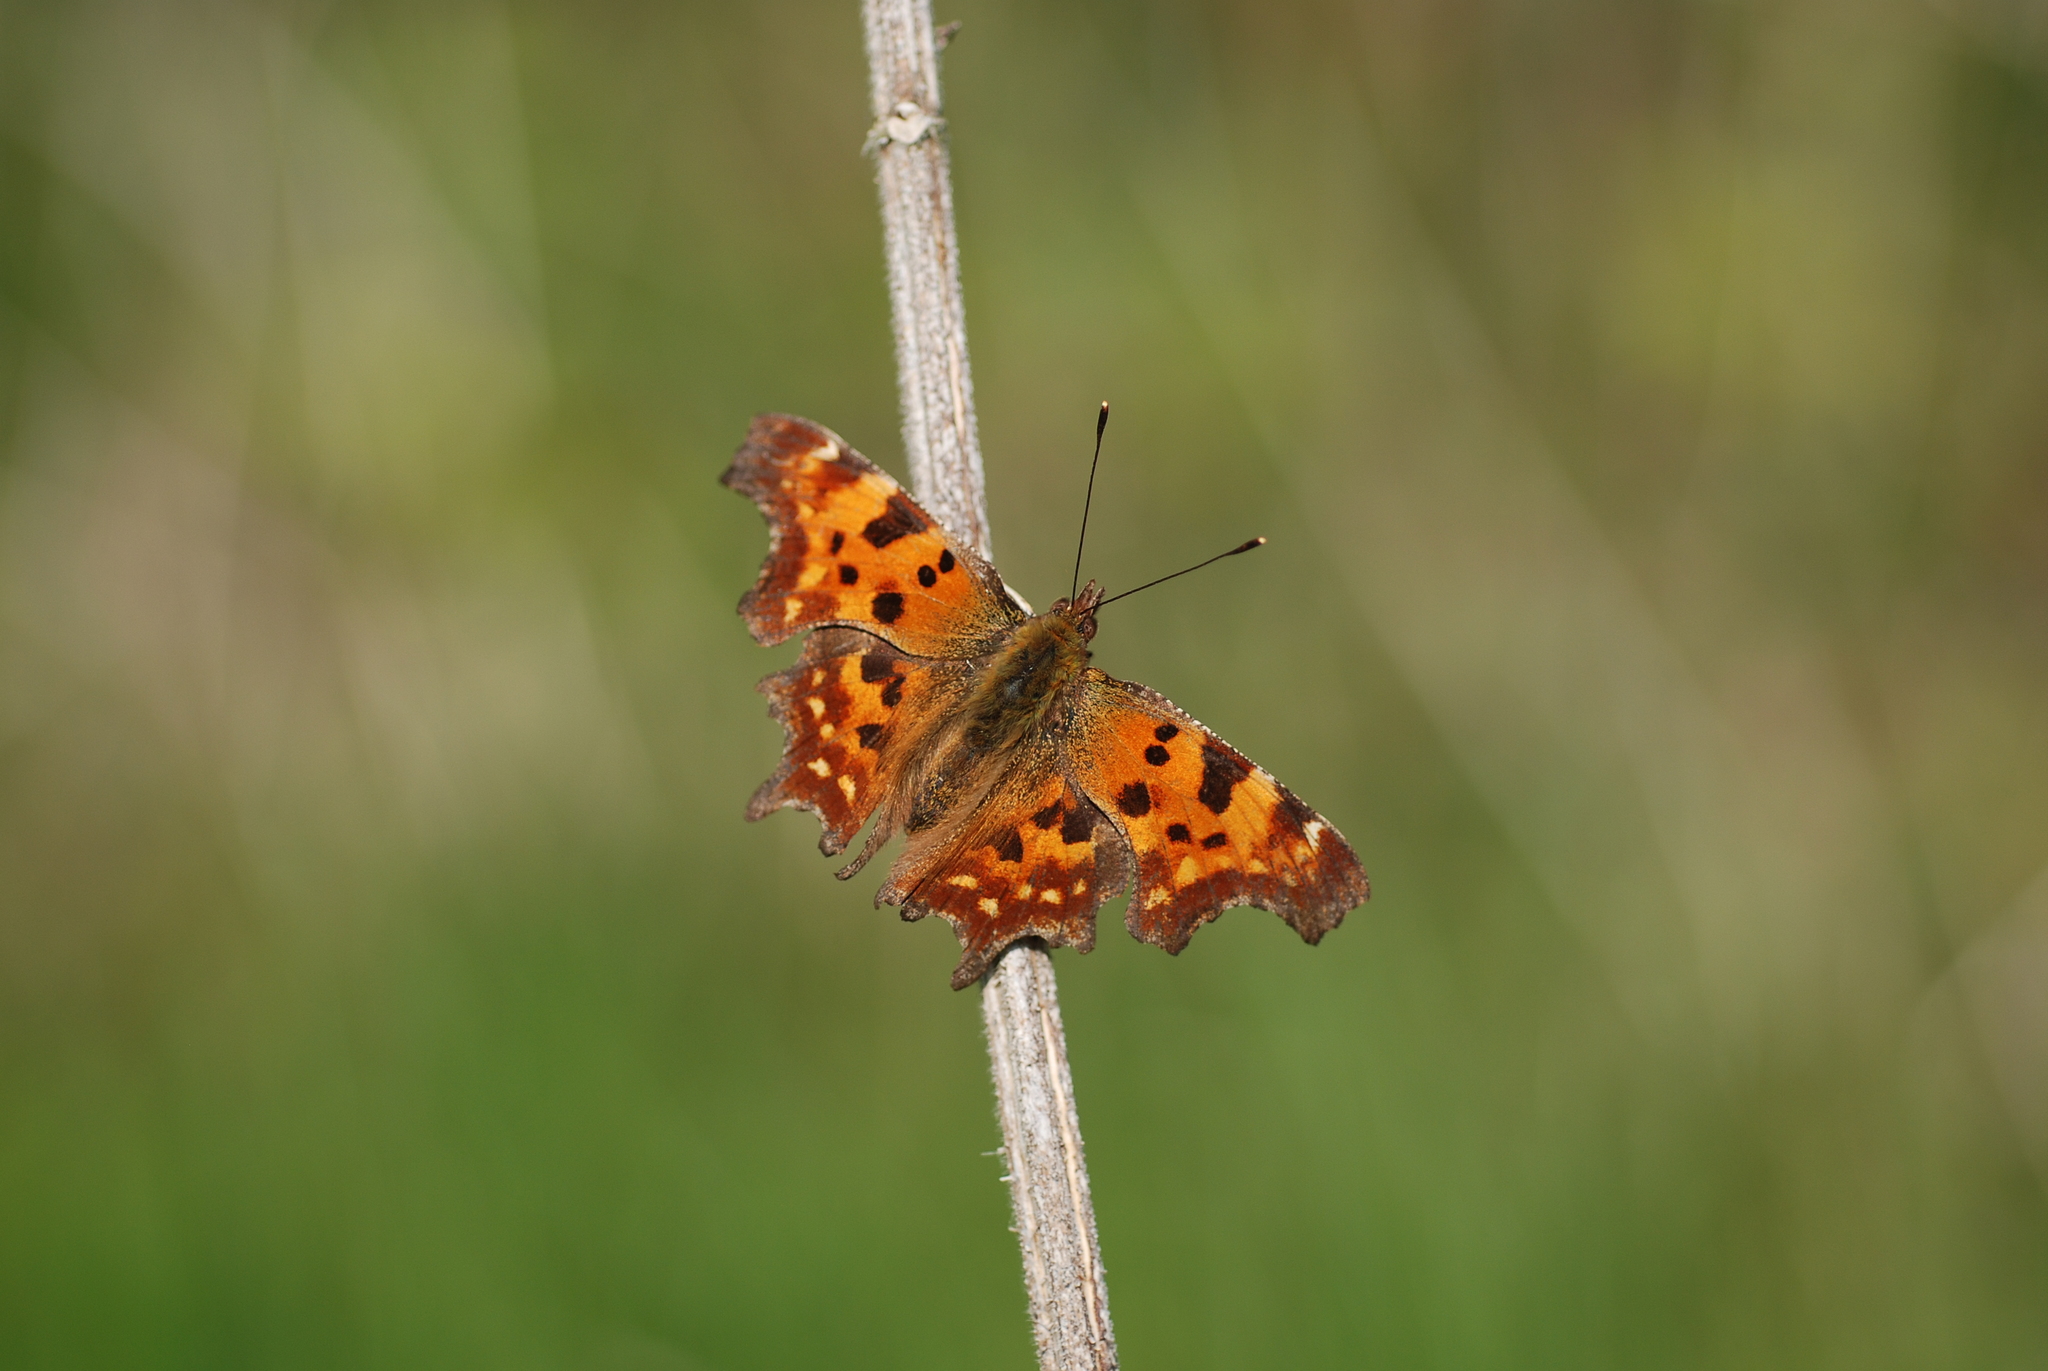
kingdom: Animalia
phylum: Arthropoda
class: Insecta
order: Lepidoptera
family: Nymphalidae
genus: Polygonia
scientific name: Polygonia c-album
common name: Comma
